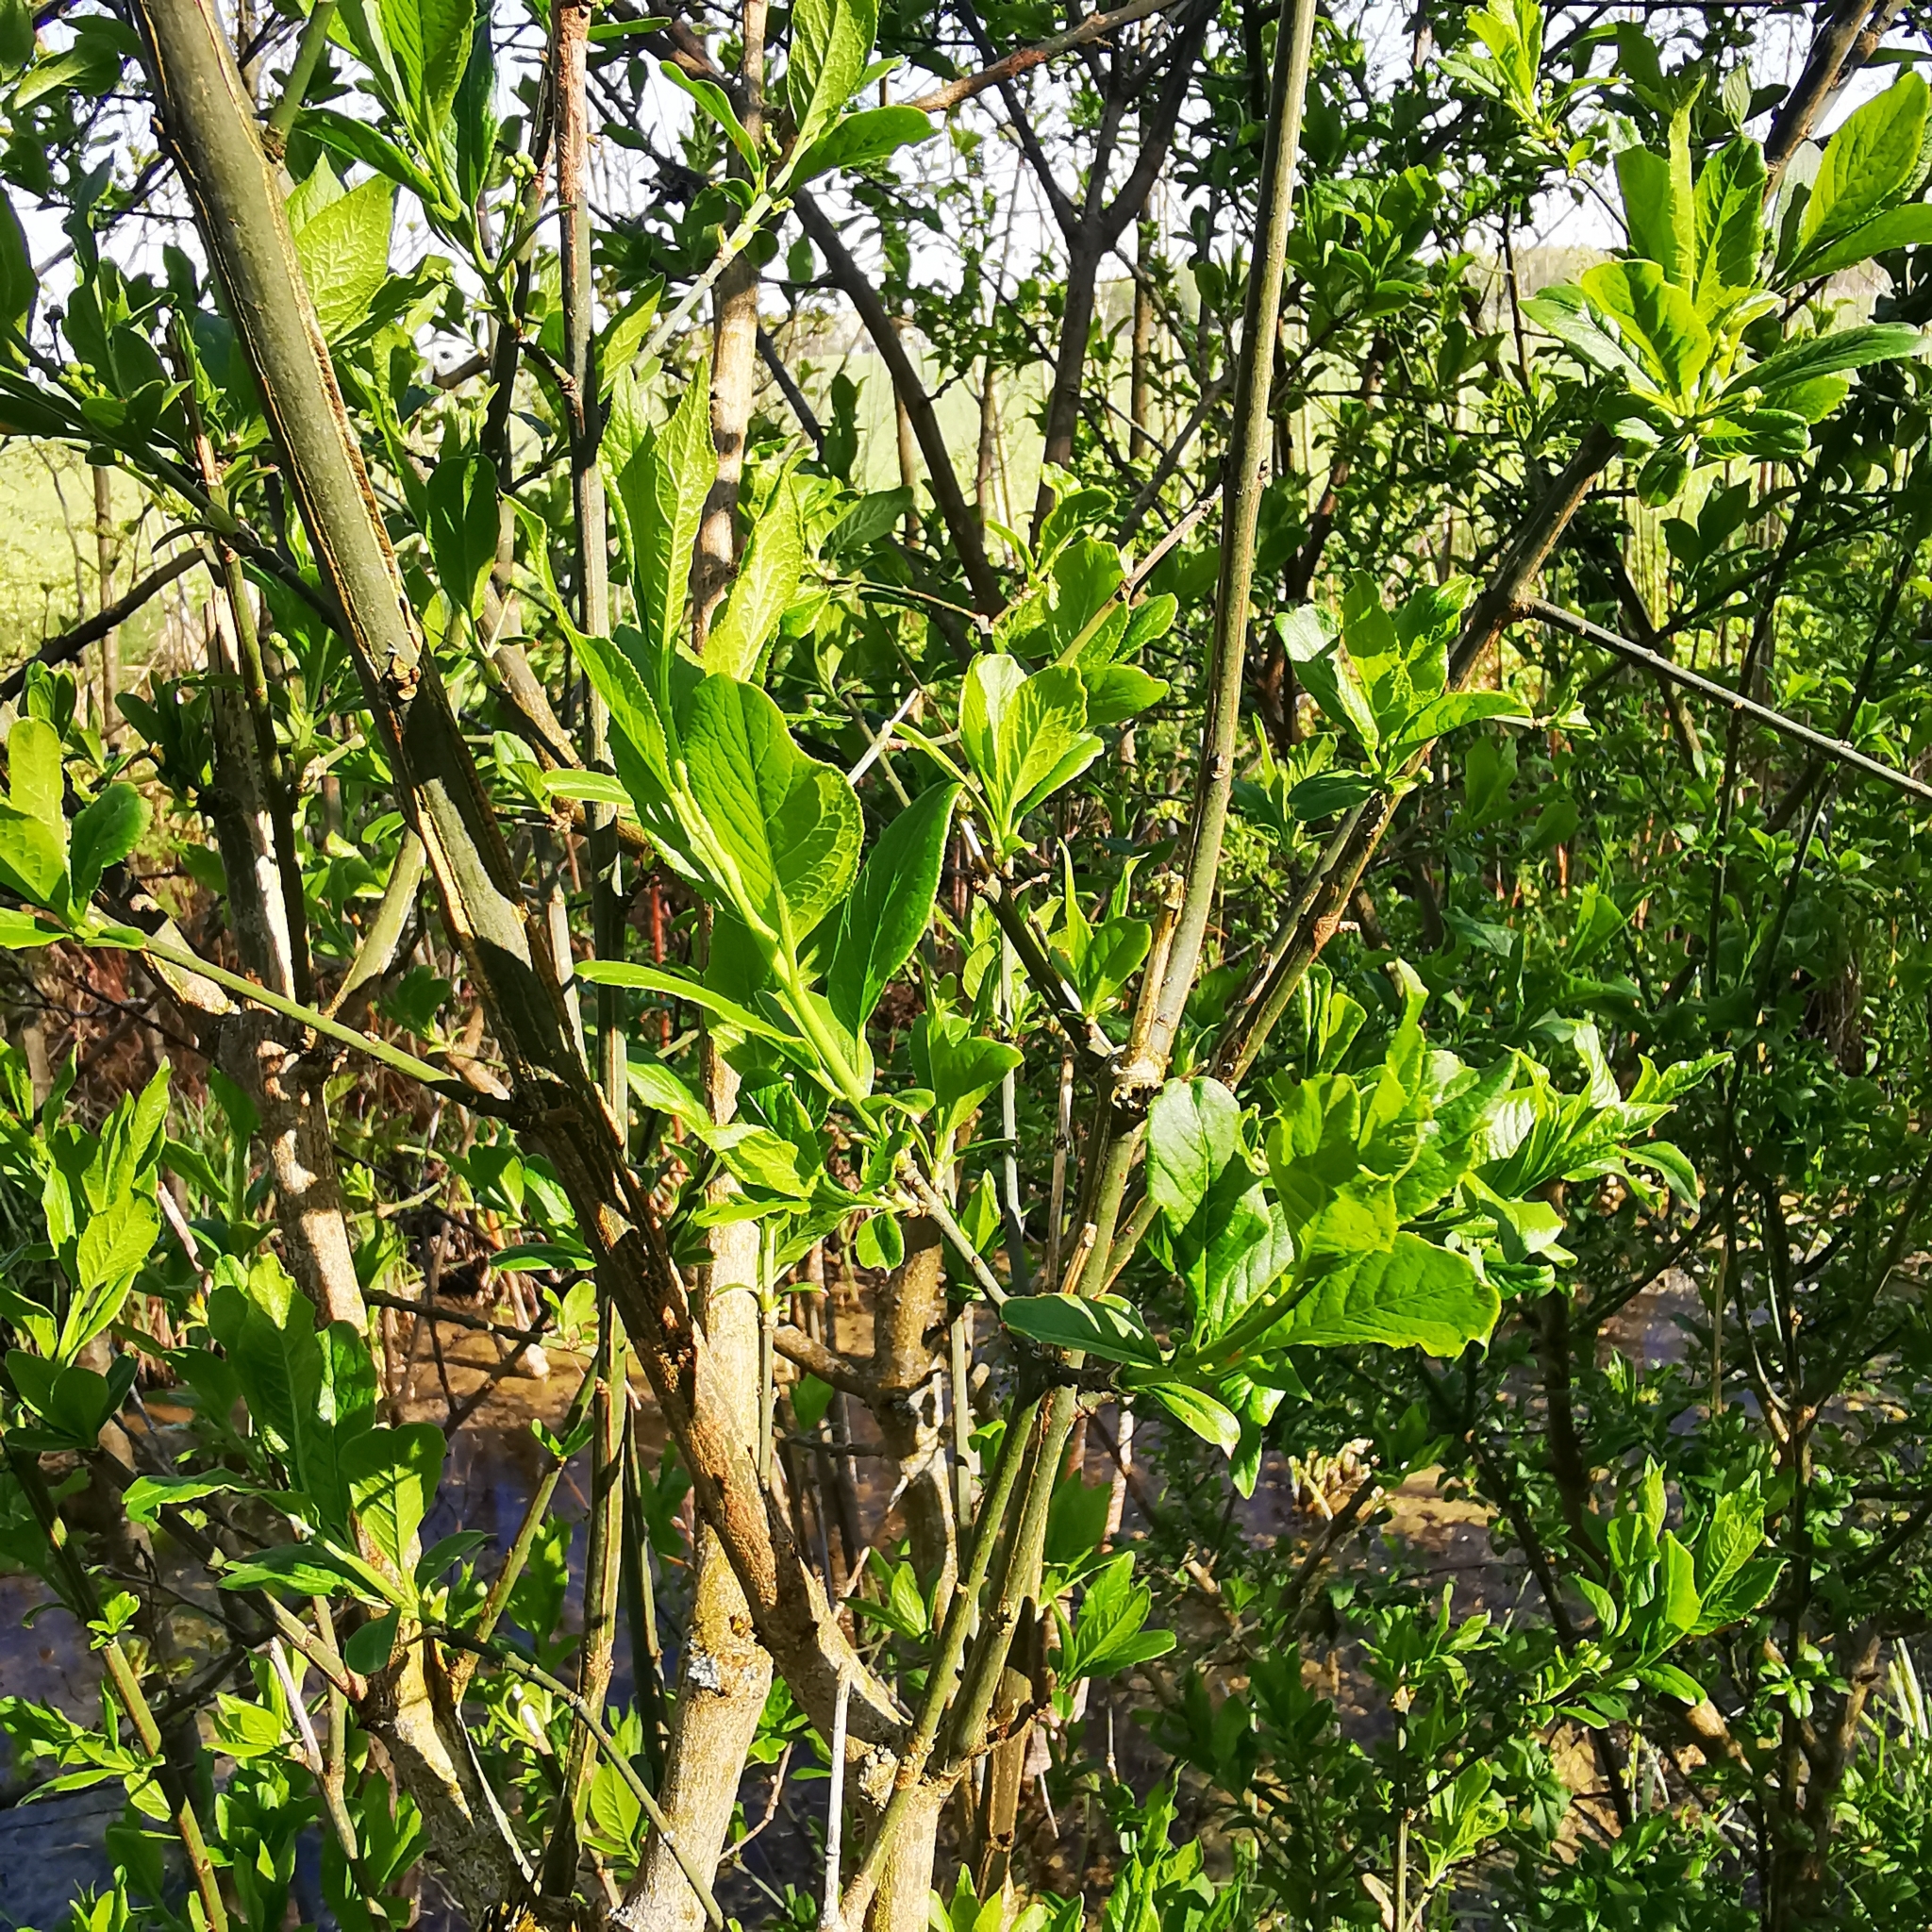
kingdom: Plantae
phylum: Tracheophyta
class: Magnoliopsida
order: Celastrales
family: Celastraceae
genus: Euonymus
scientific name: Euonymus europaeus
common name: Spindle
